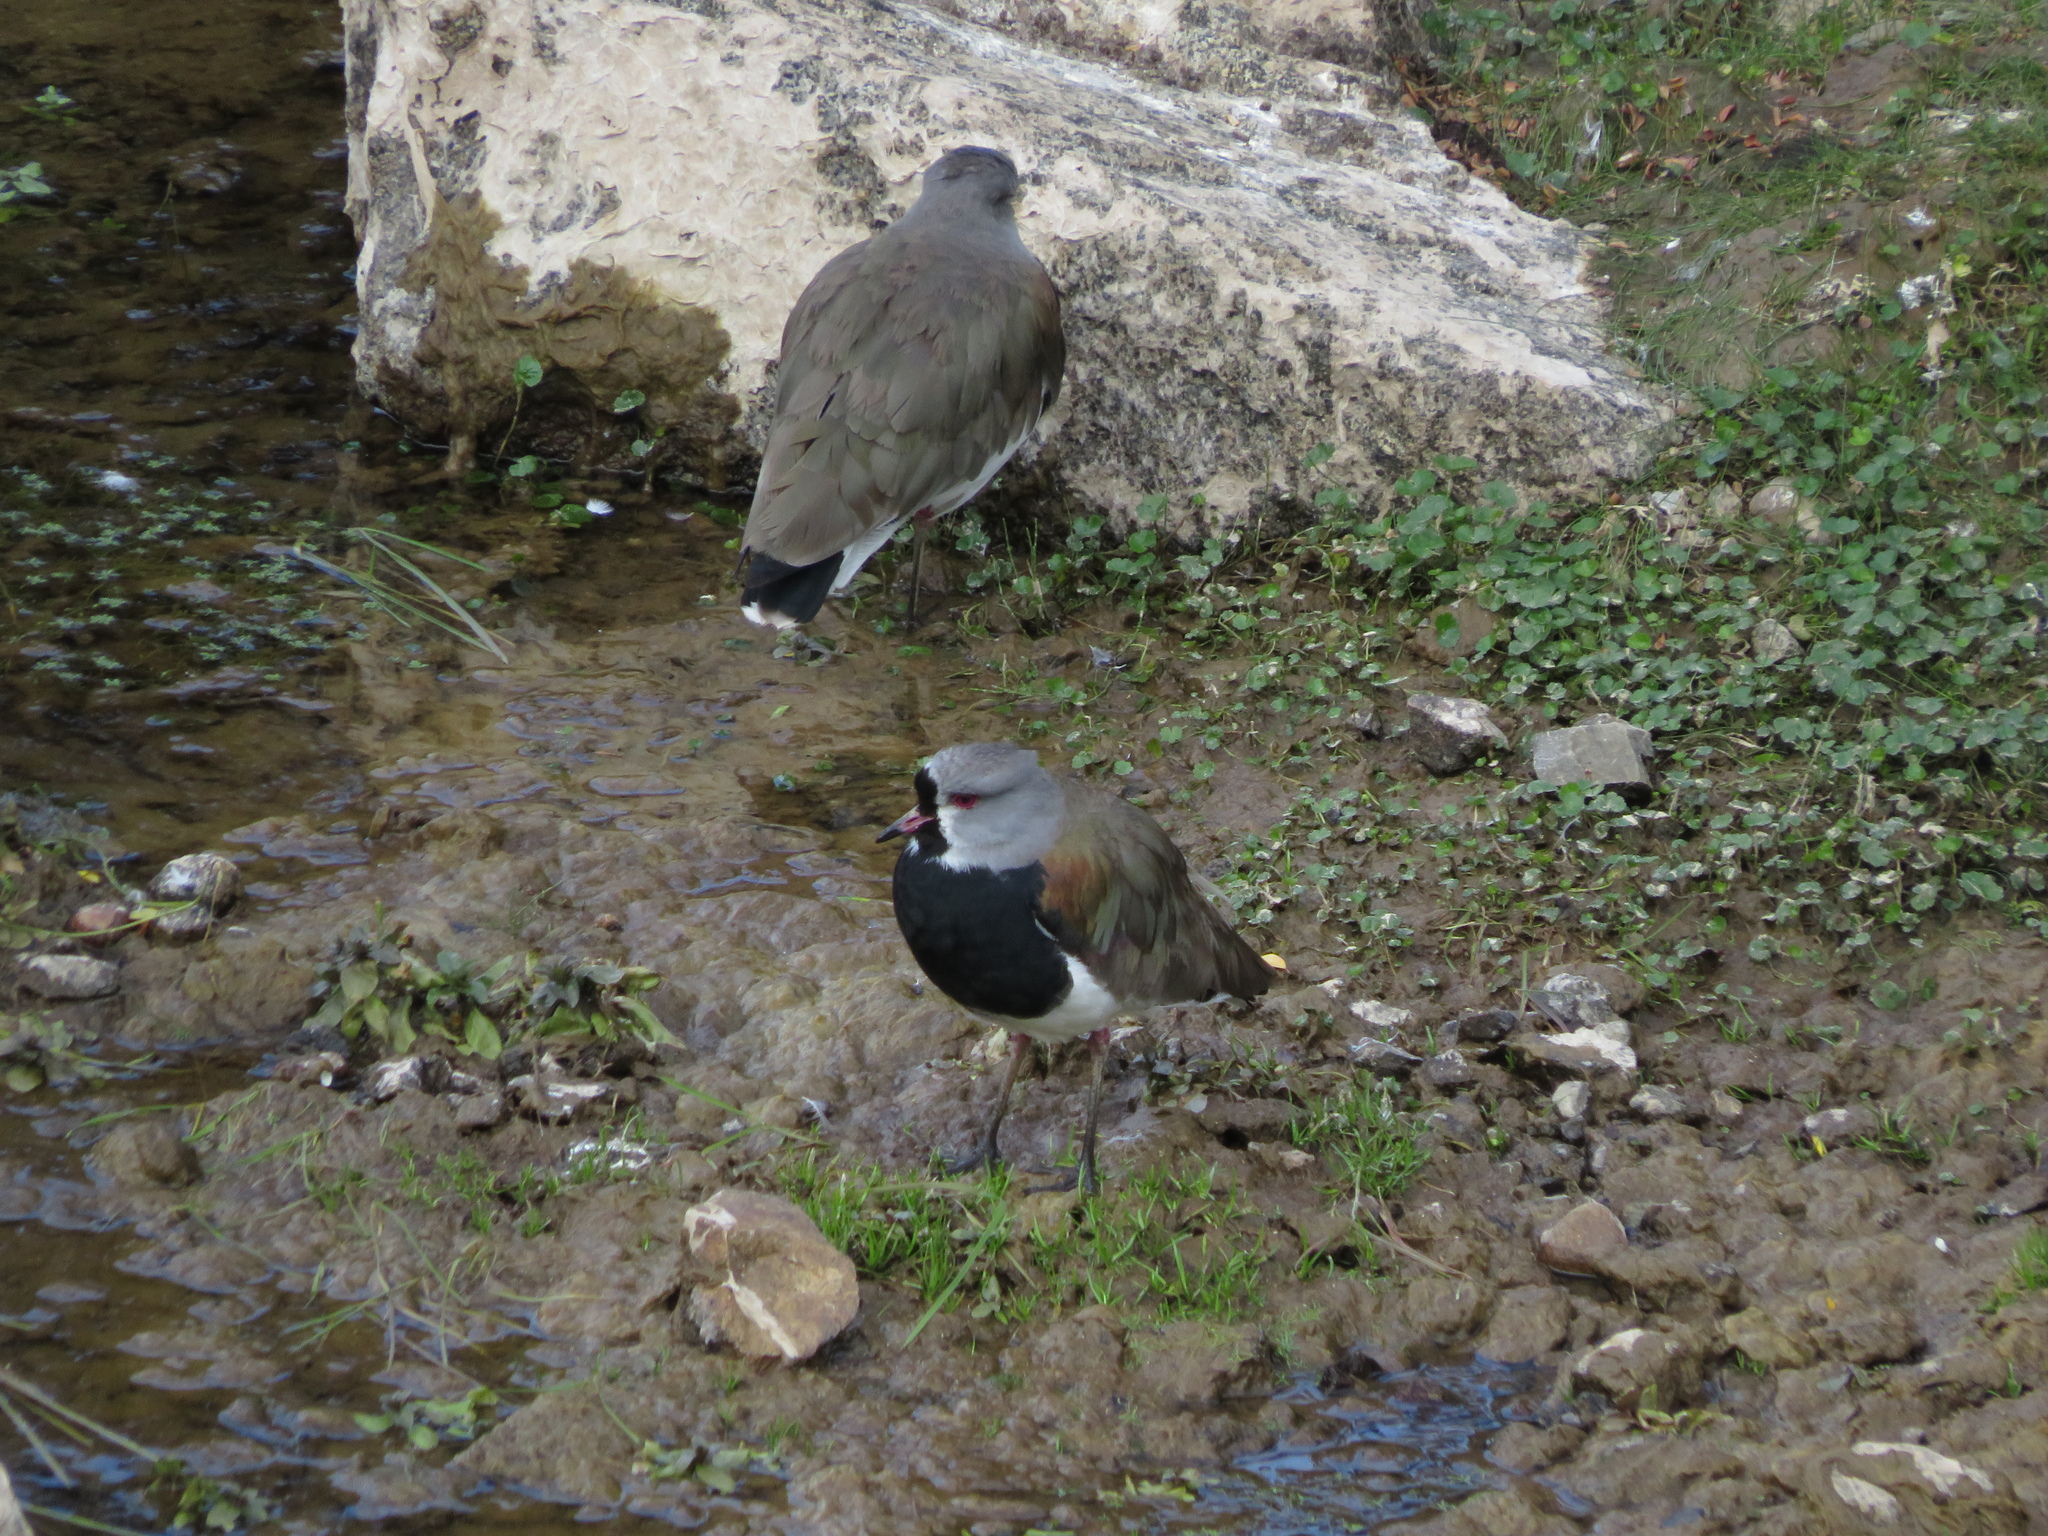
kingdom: Animalia
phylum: Chordata
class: Aves
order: Charadriiformes
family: Charadriidae
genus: Vanellus
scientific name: Vanellus chilensis
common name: Southern lapwing
